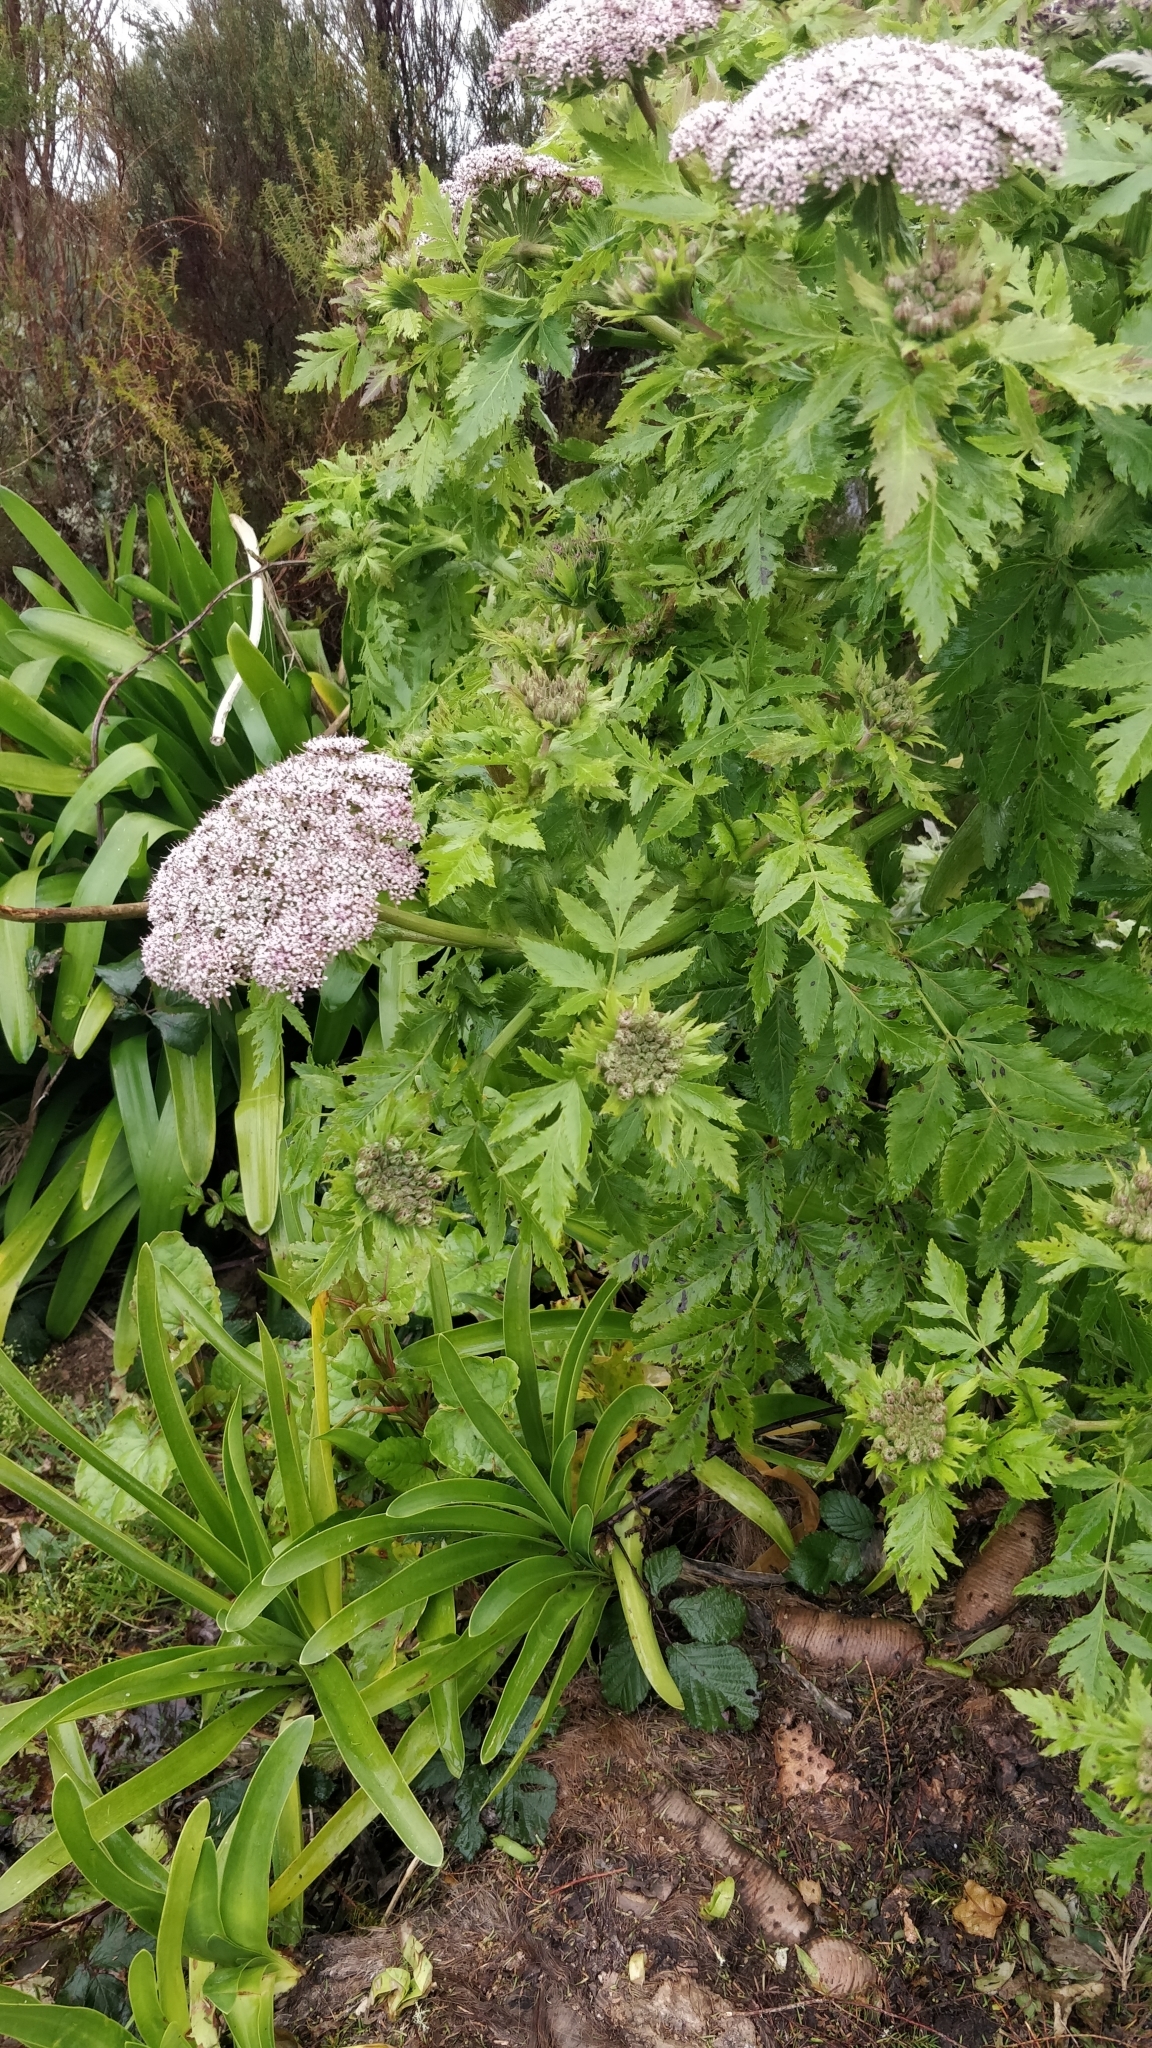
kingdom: Plantae
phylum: Tracheophyta
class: Magnoliopsida
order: Apiales
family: Apiaceae
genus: Daucus
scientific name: Daucus decipiens
